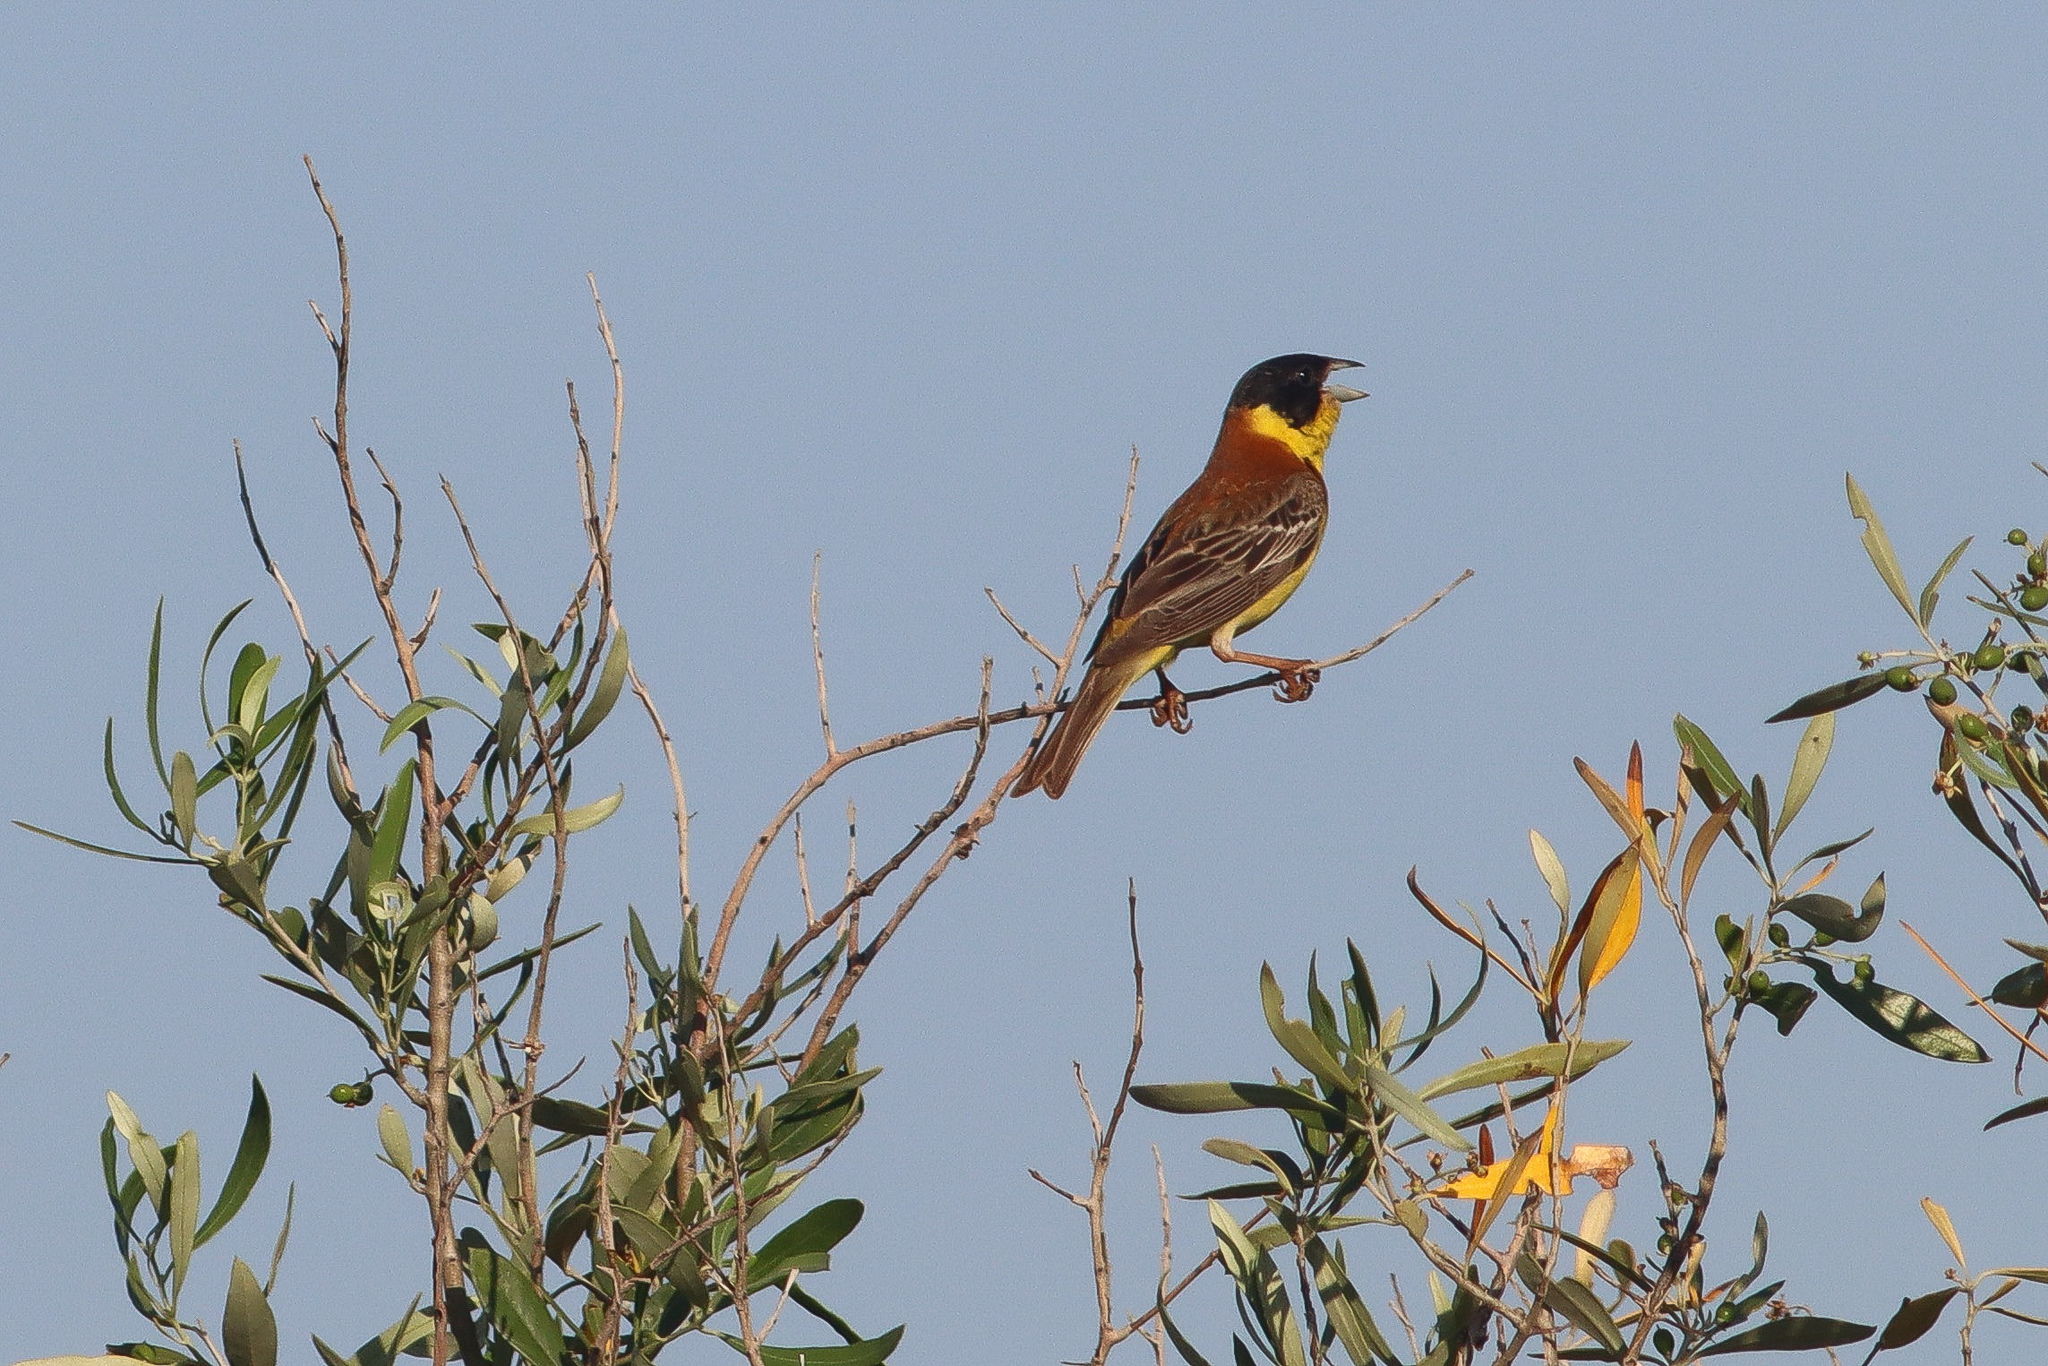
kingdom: Animalia
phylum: Chordata
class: Aves
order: Passeriformes
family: Emberizidae
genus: Emberiza
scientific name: Emberiza melanocephala
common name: Black-headed bunting
